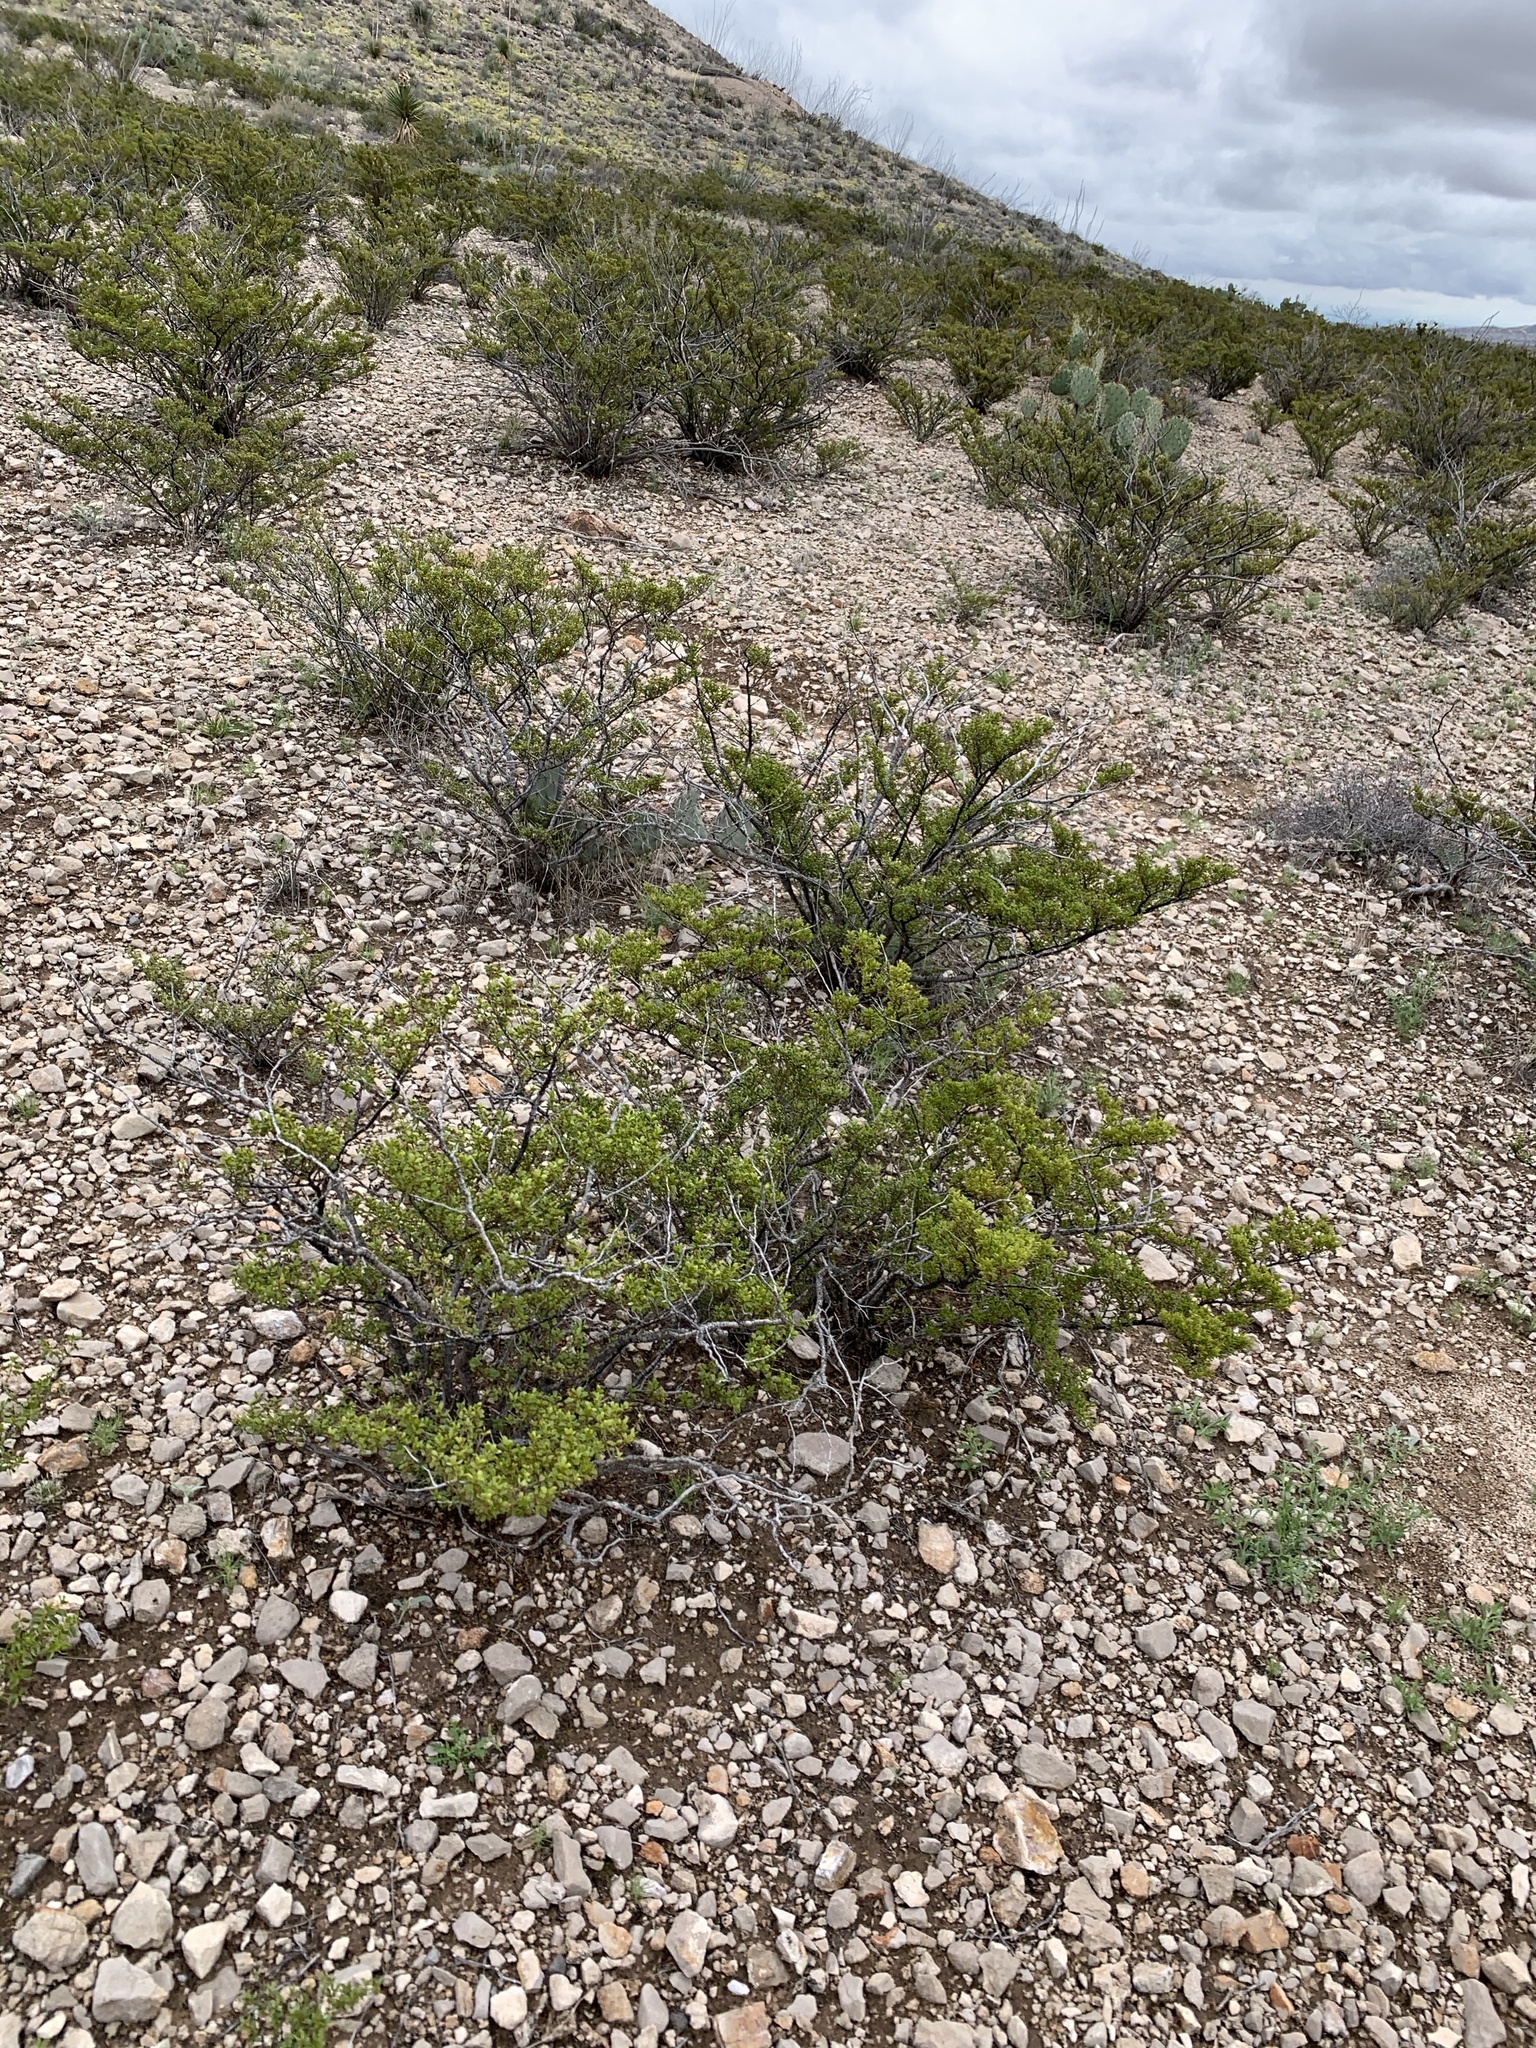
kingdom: Plantae
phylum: Tracheophyta
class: Magnoliopsida
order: Zygophyllales
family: Zygophyllaceae
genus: Larrea
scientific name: Larrea tridentata
